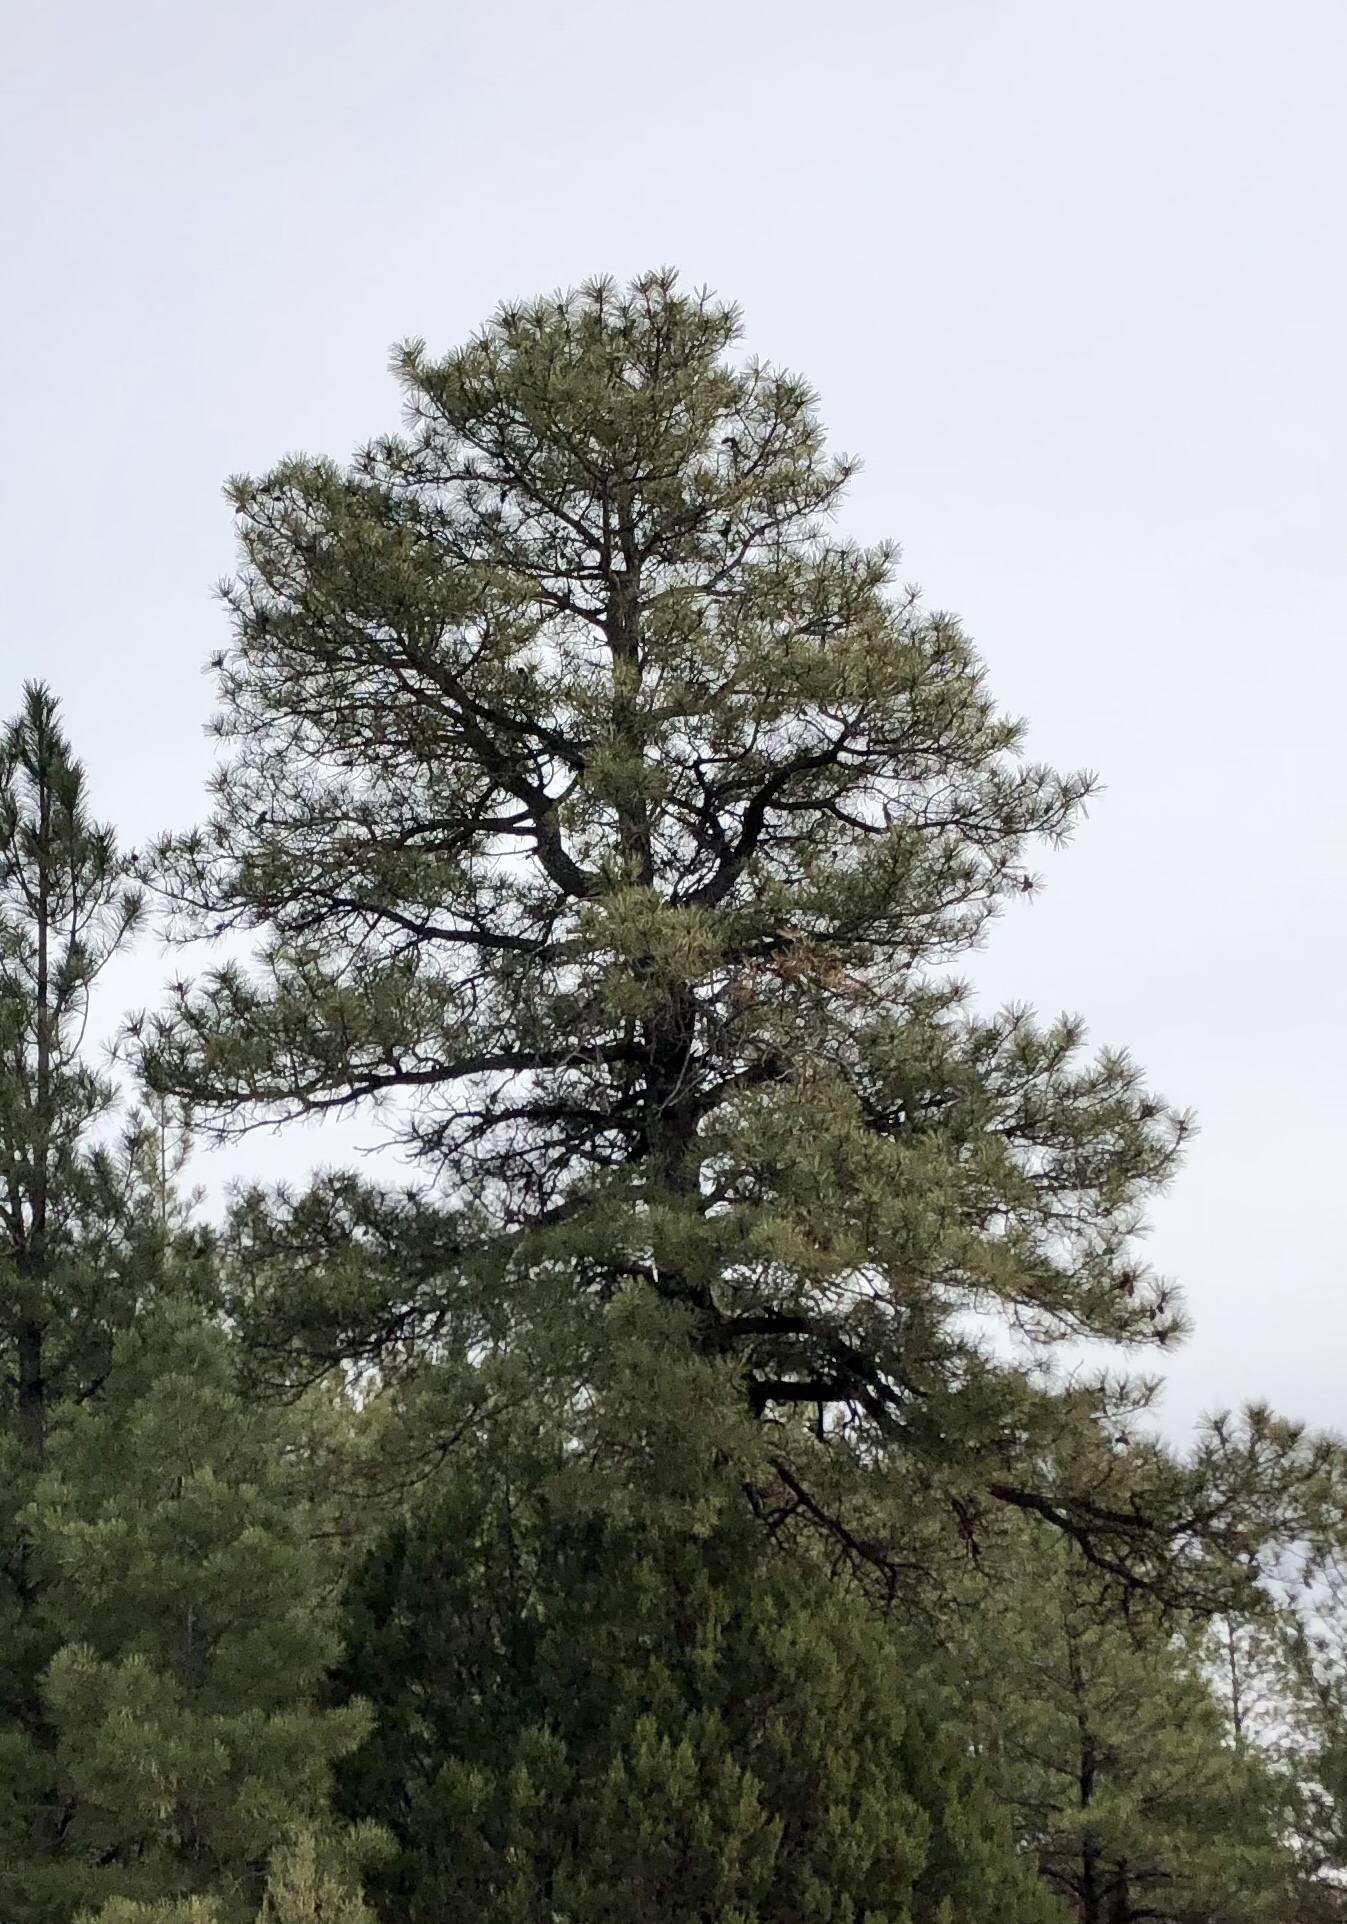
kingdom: Plantae
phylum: Tracheophyta
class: Pinopsida
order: Pinales
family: Pinaceae
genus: Pinus
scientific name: Pinus ponderosa
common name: Western yellow-pine
